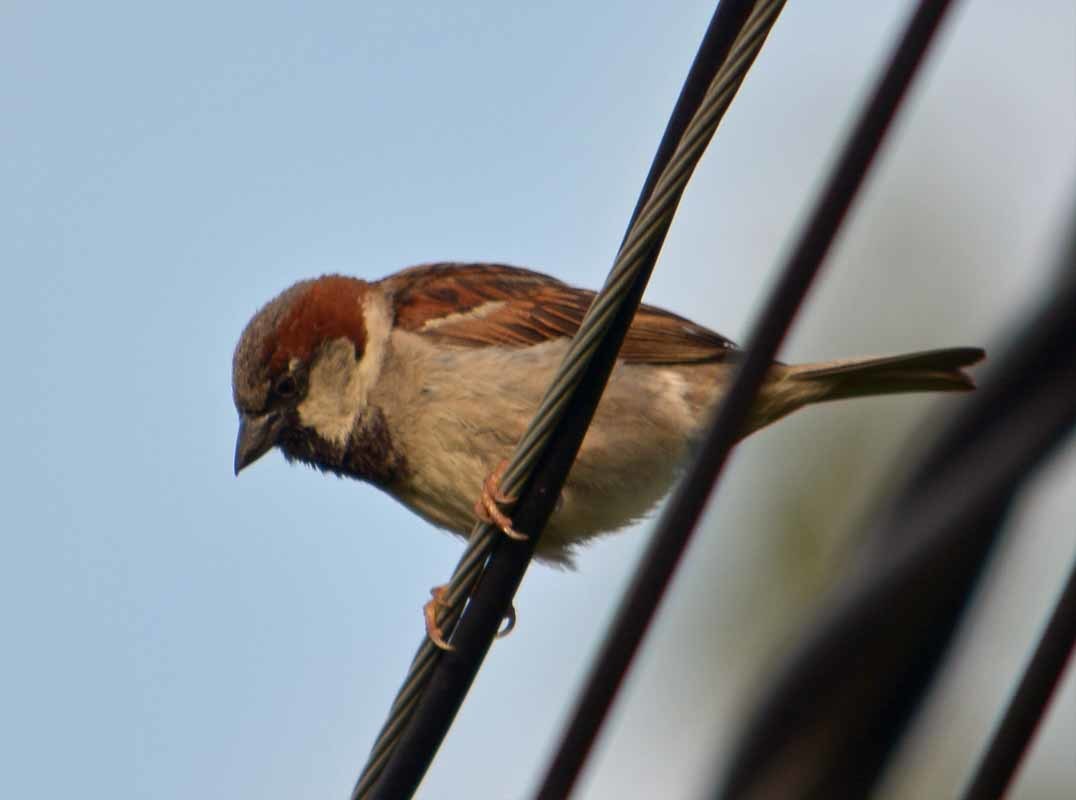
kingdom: Animalia
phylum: Chordata
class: Aves
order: Passeriformes
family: Passeridae
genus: Passer
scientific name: Passer domesticus
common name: House sparrow
